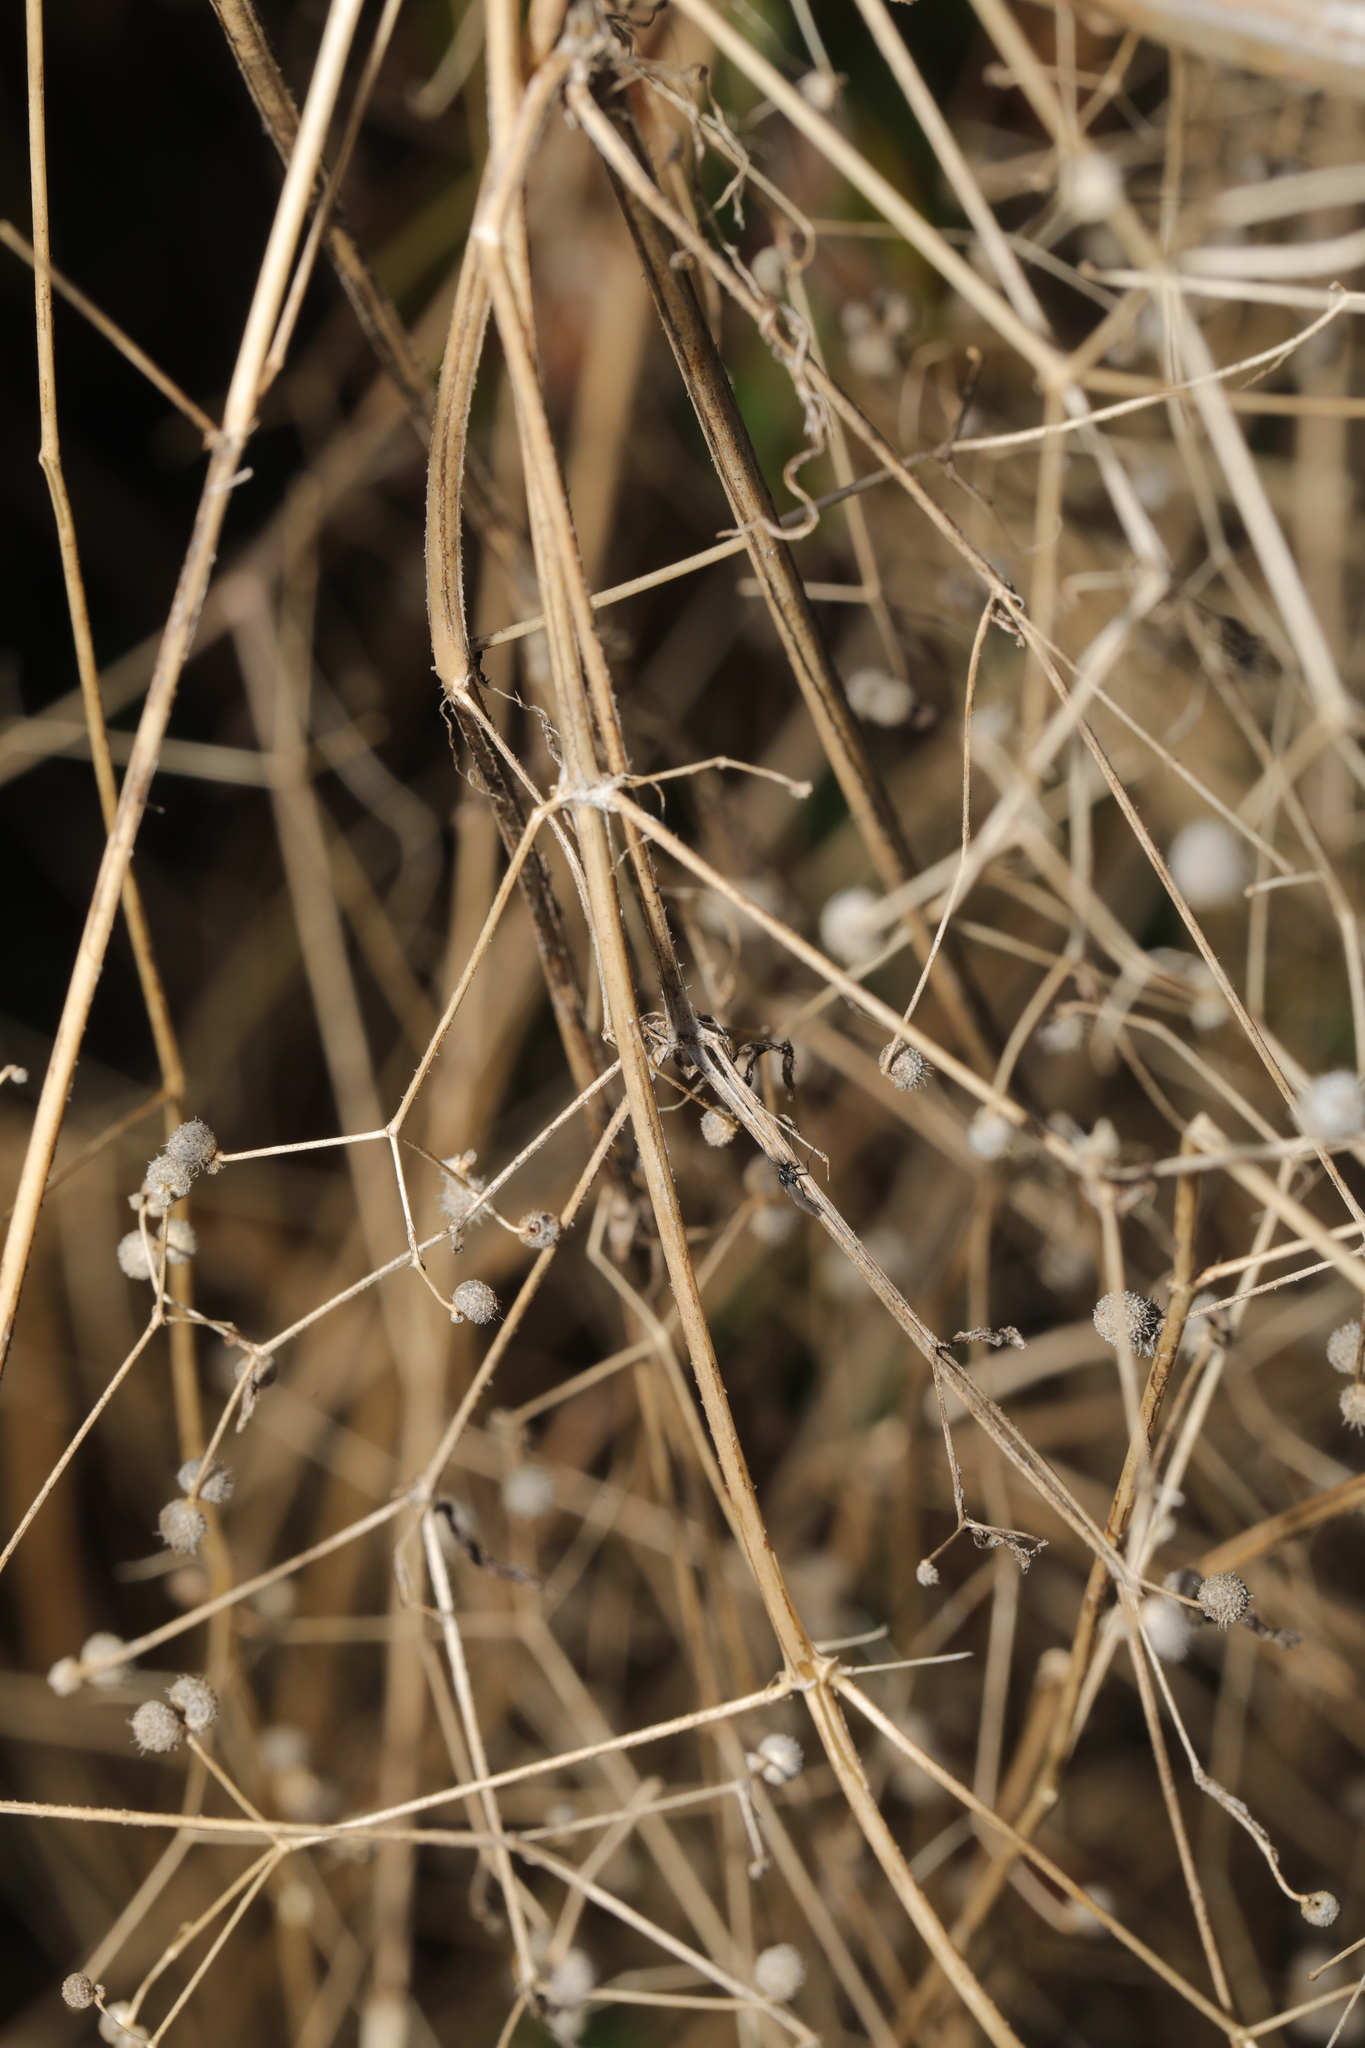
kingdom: Plantae
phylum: Tracheophyta
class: Magnoliopsida
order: Gentianales
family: Rubiaceae
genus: Galium
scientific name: Galium aparine
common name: Cleavers
